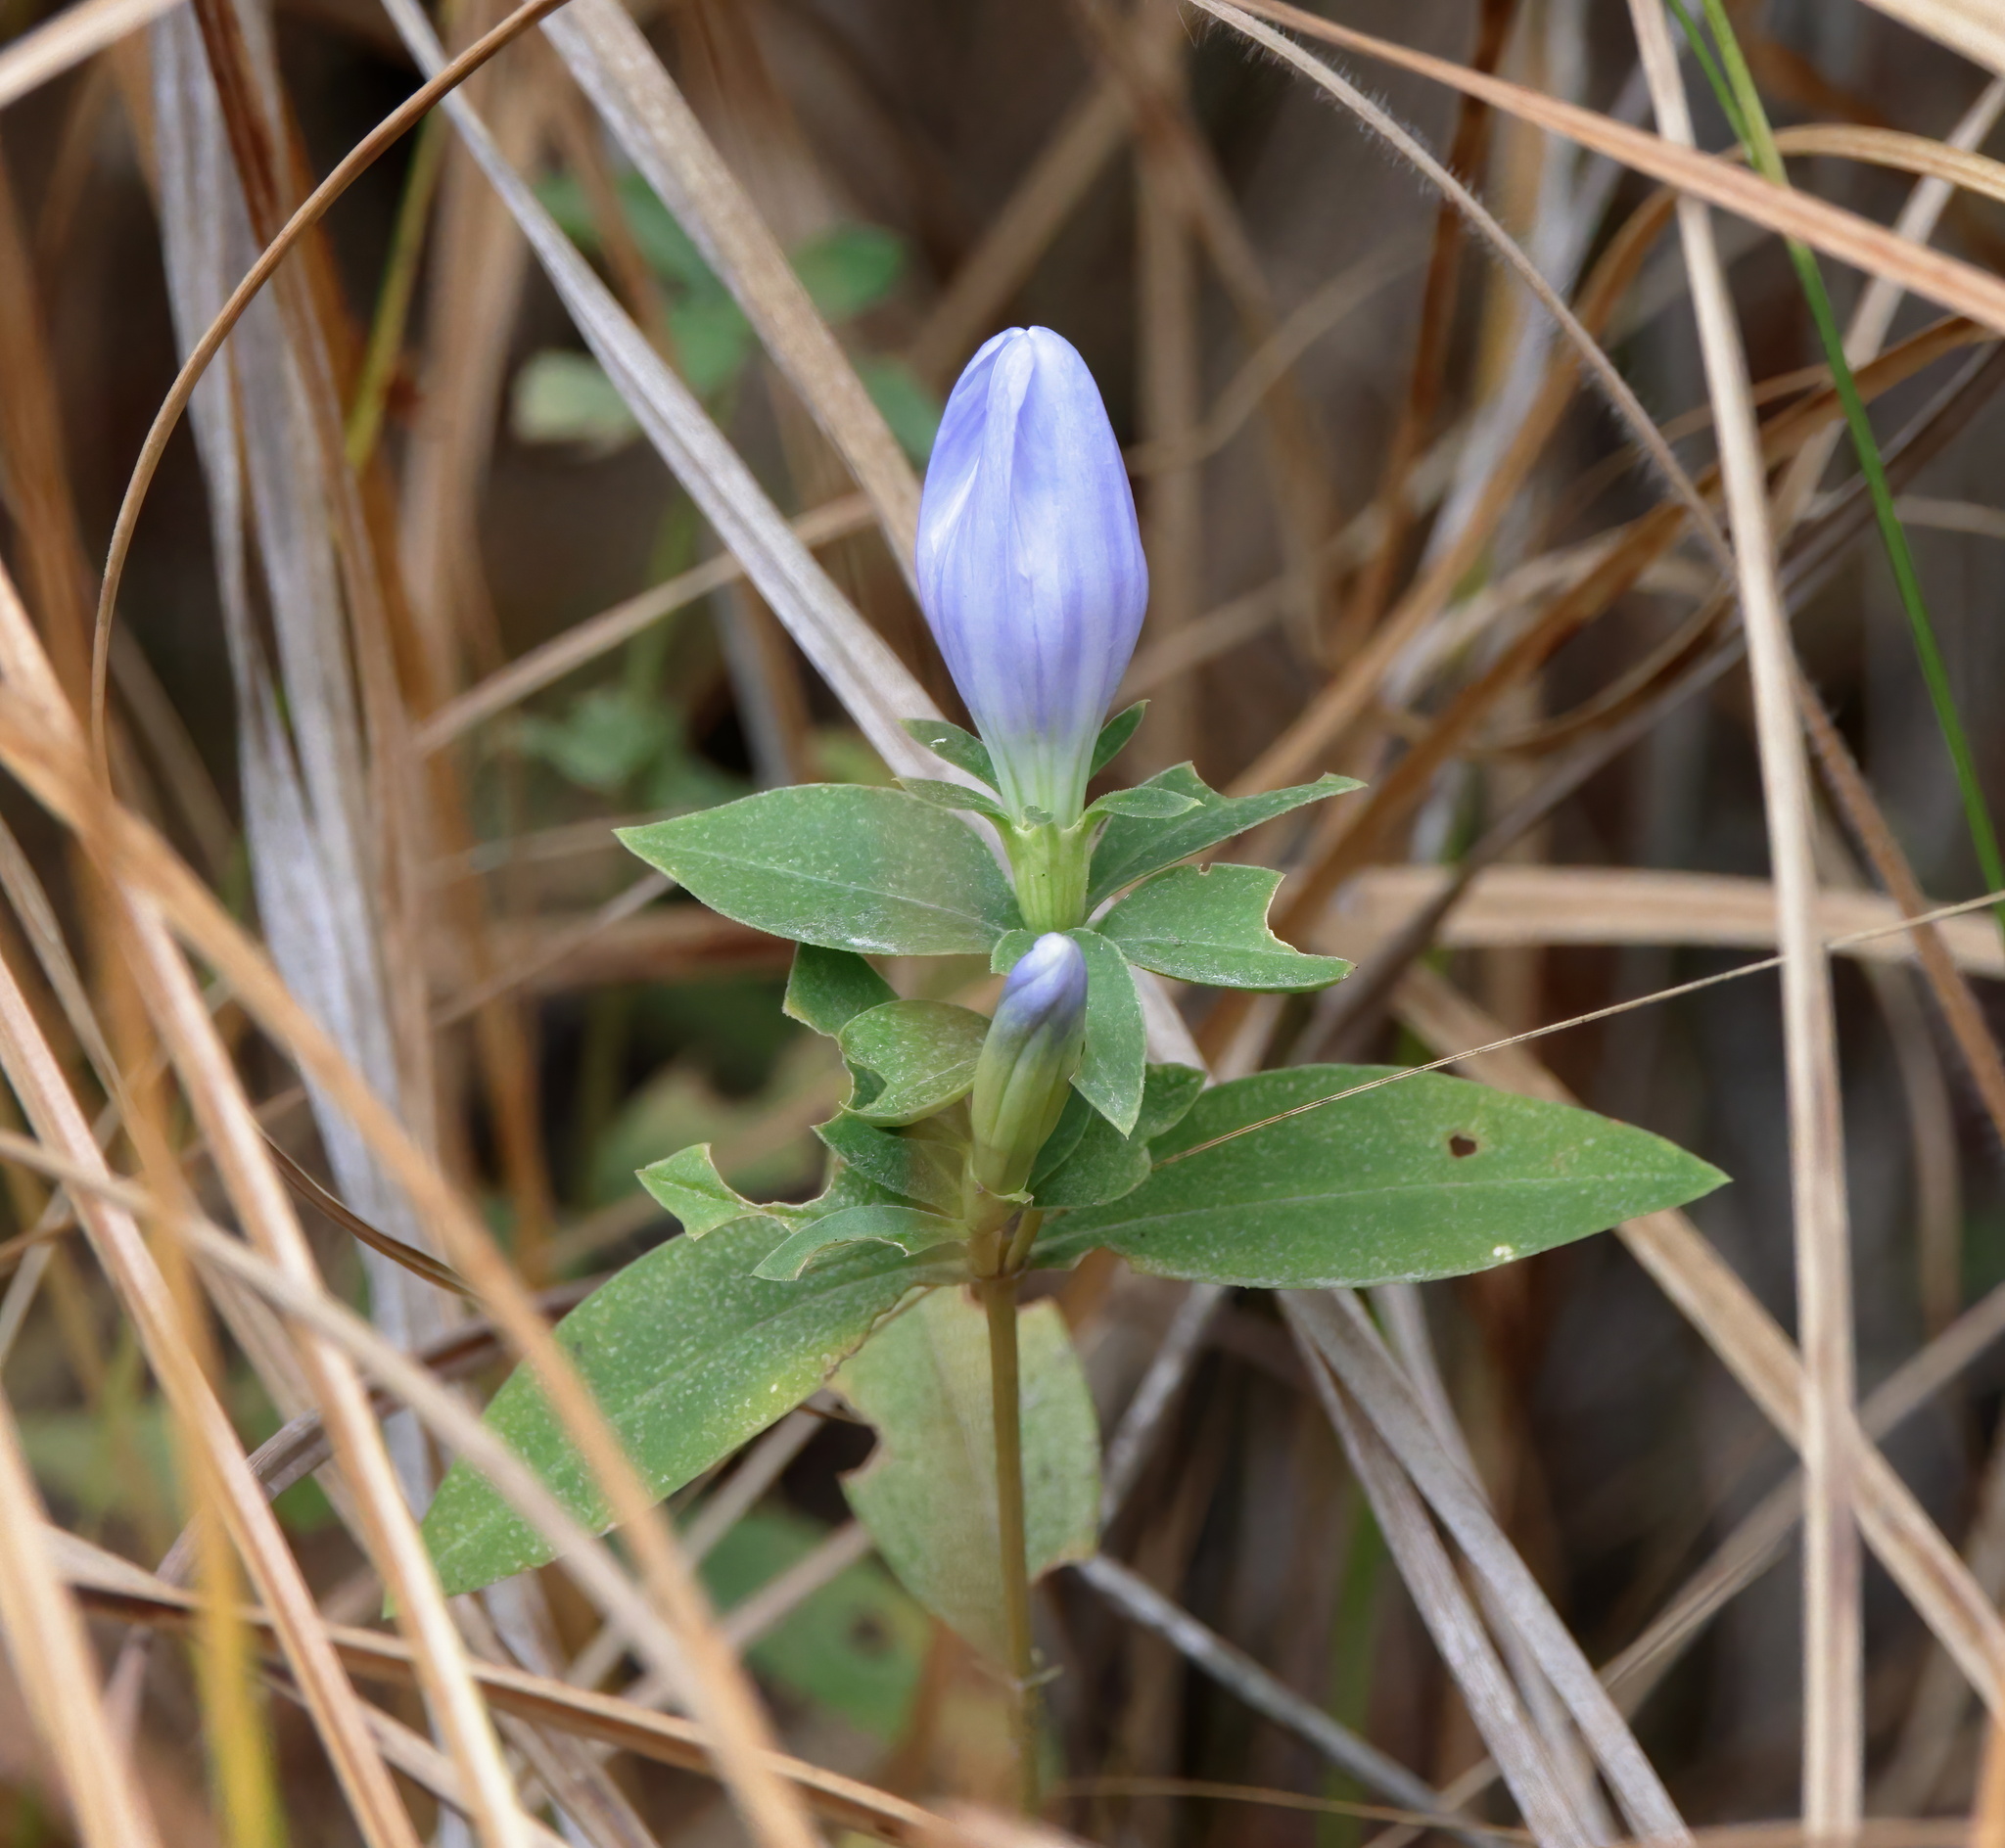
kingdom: Plantae
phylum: Tracheophyta
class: Magnoliopsida
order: Gentianales
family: Gentianaceae
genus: Gentiana
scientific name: Gentiana saponaria
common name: Soapwort gentian
